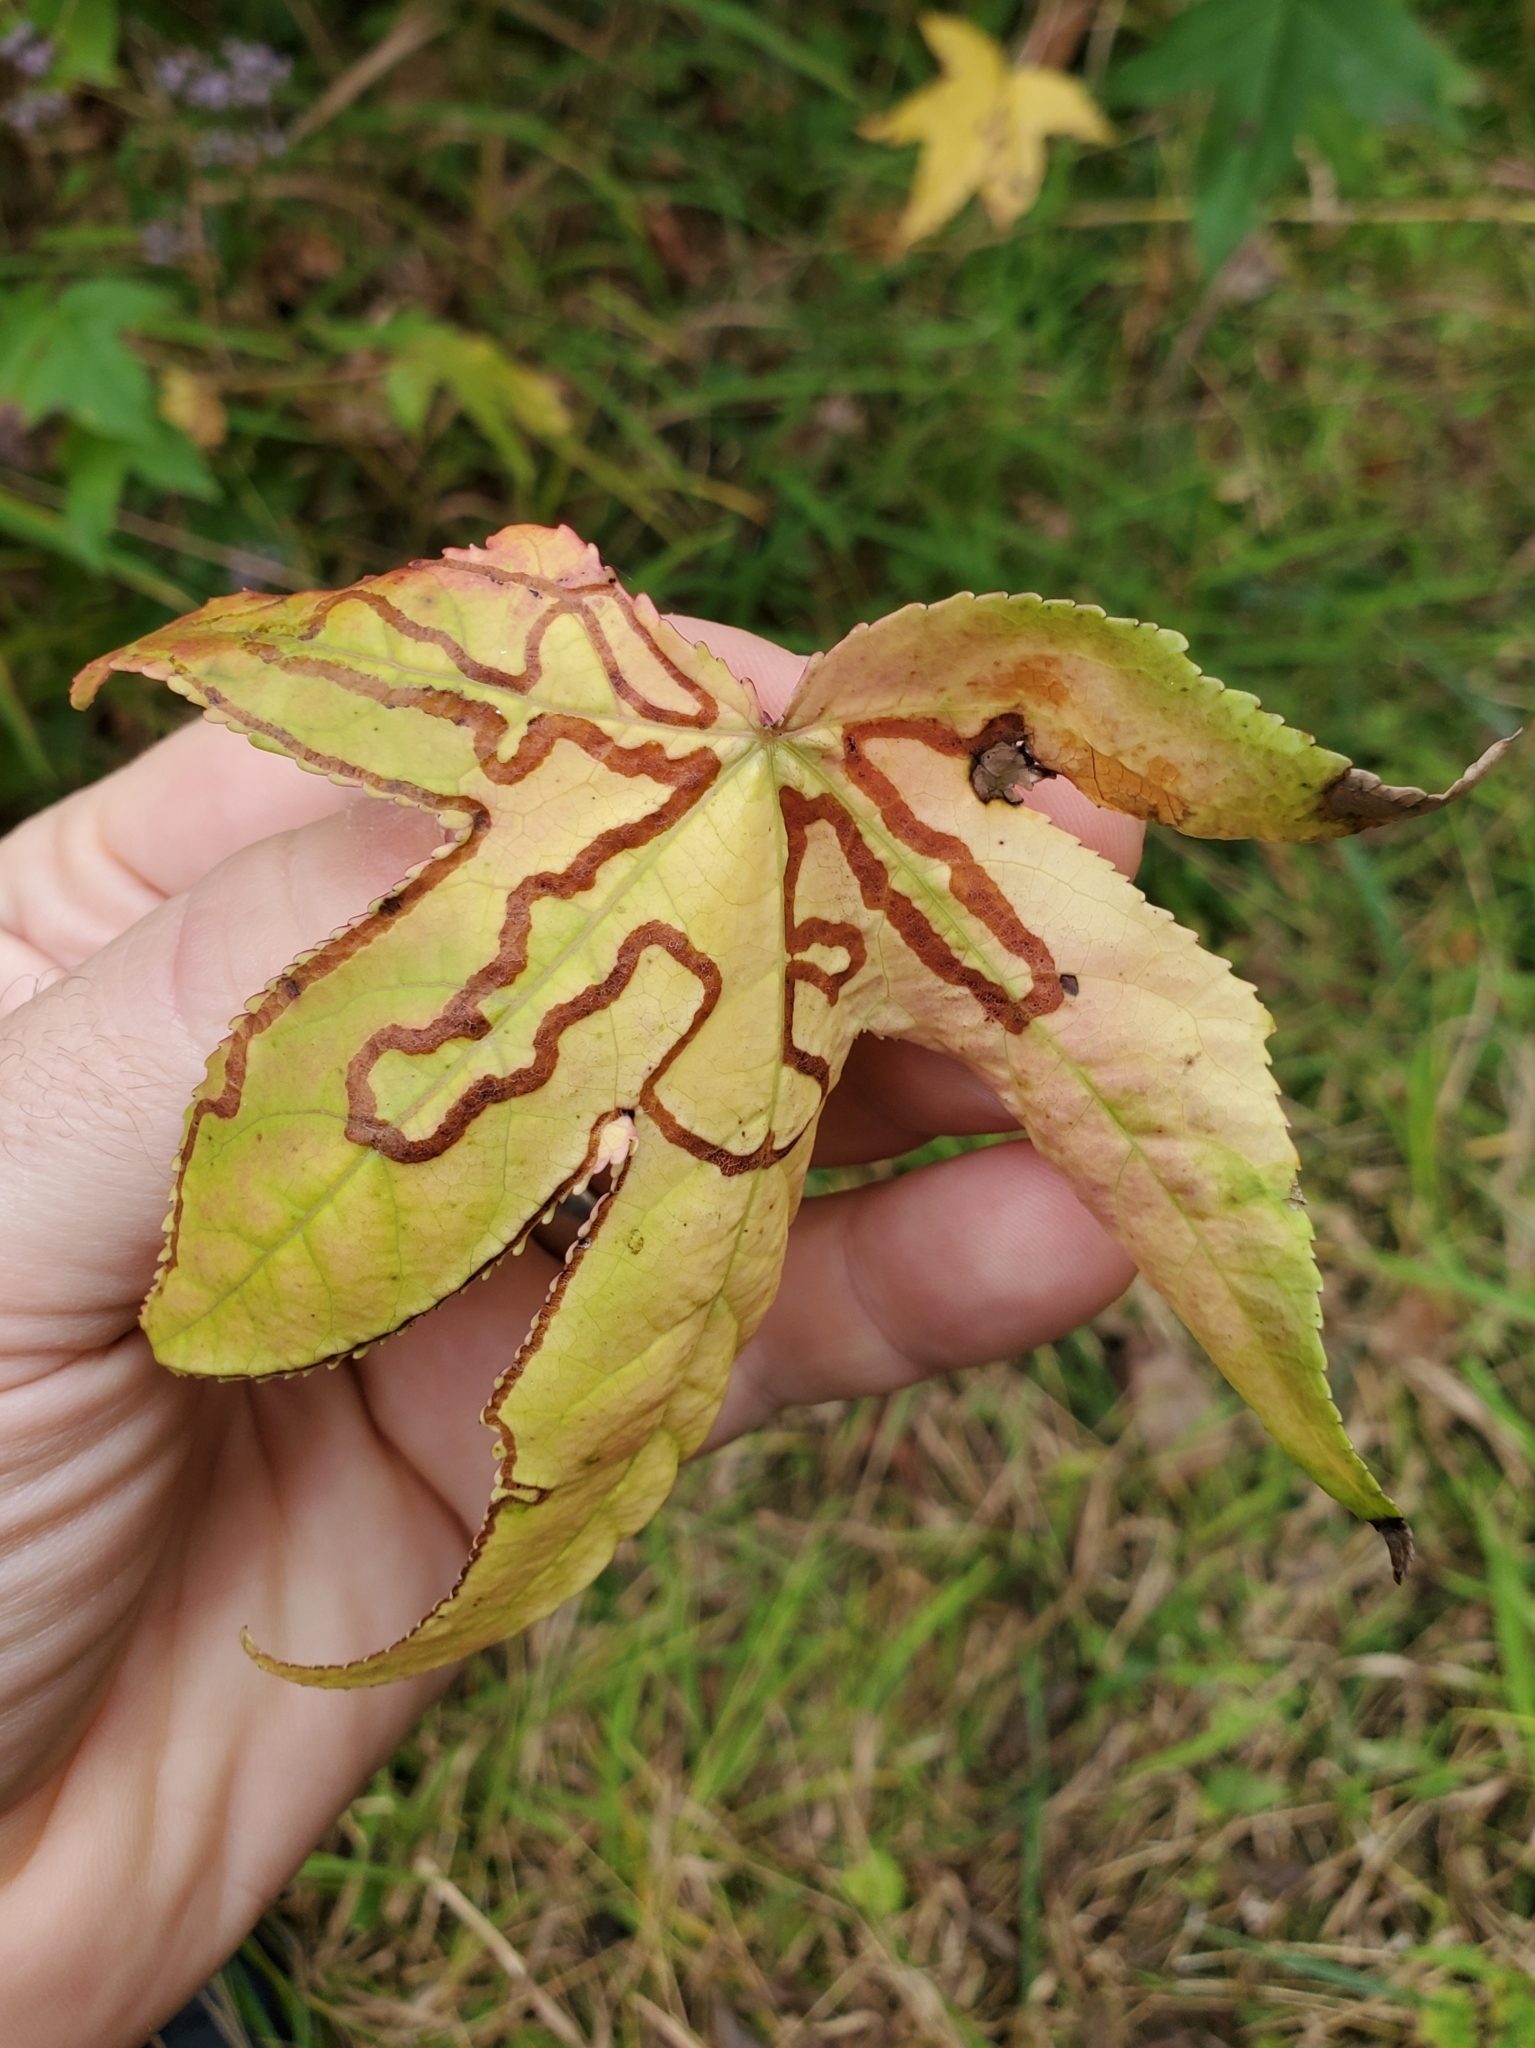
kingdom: Animalia
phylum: Arthropoda
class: Insecta
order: Lepidoptera
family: Gracillariidae
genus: Phyllocnistis
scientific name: Phyllocnistis liquidambarisella
